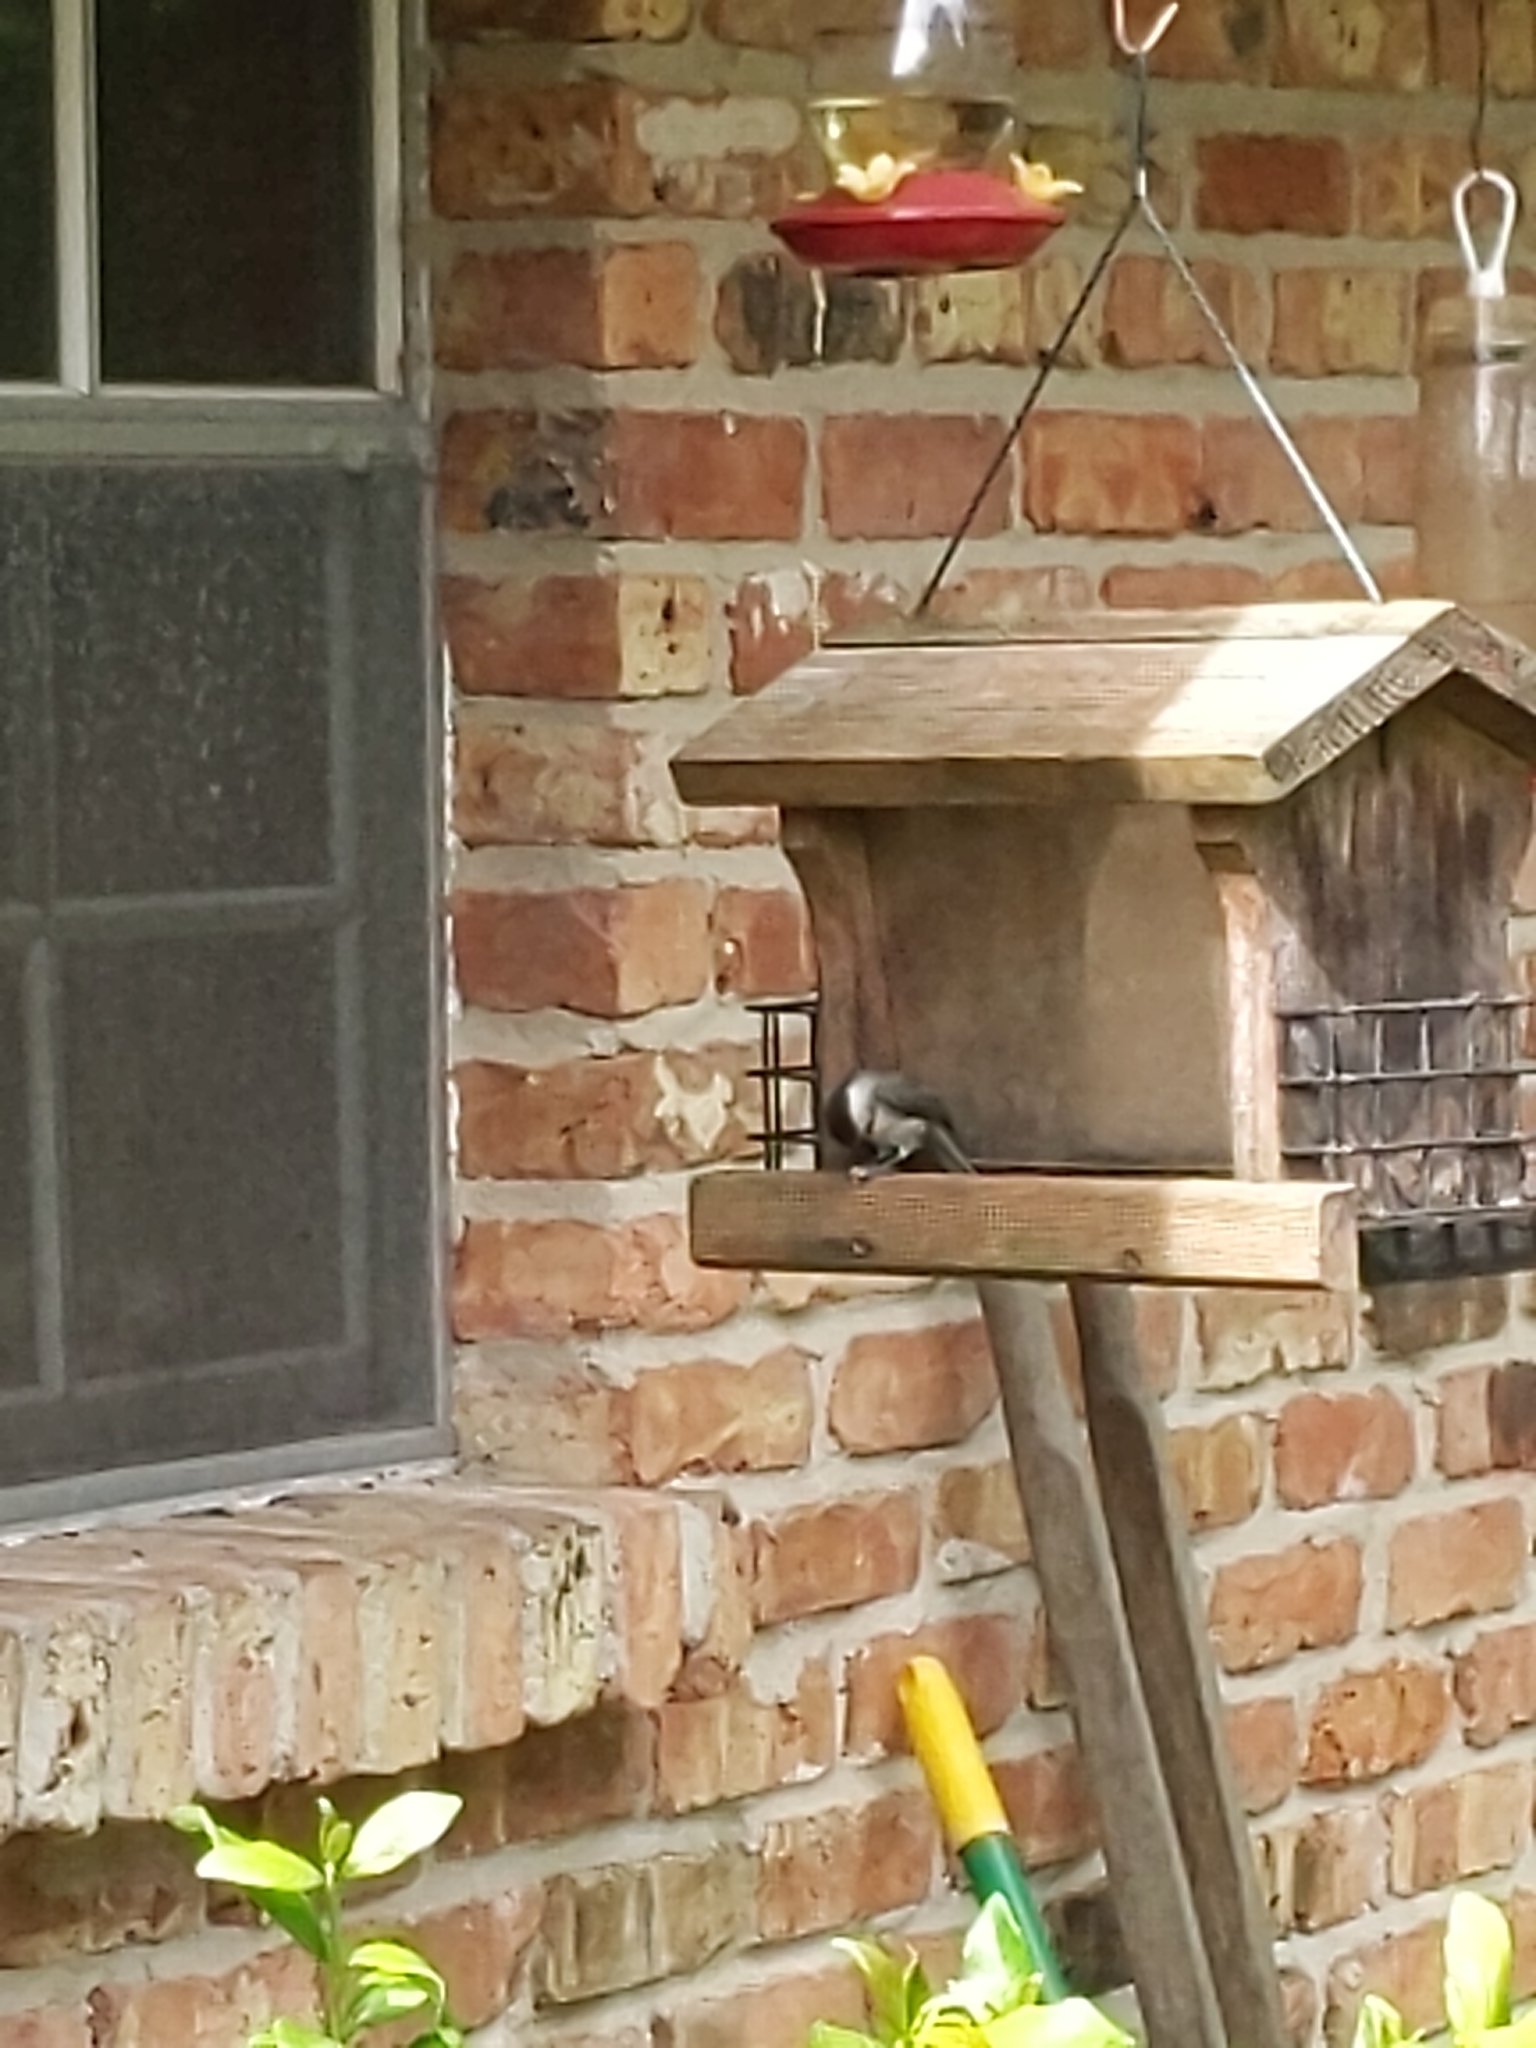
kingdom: Animalia
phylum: Chordata
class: Aves
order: Passeriformes
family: Paridae
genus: Poecile
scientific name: Poecile carolinensis
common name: Carolina chickadee
